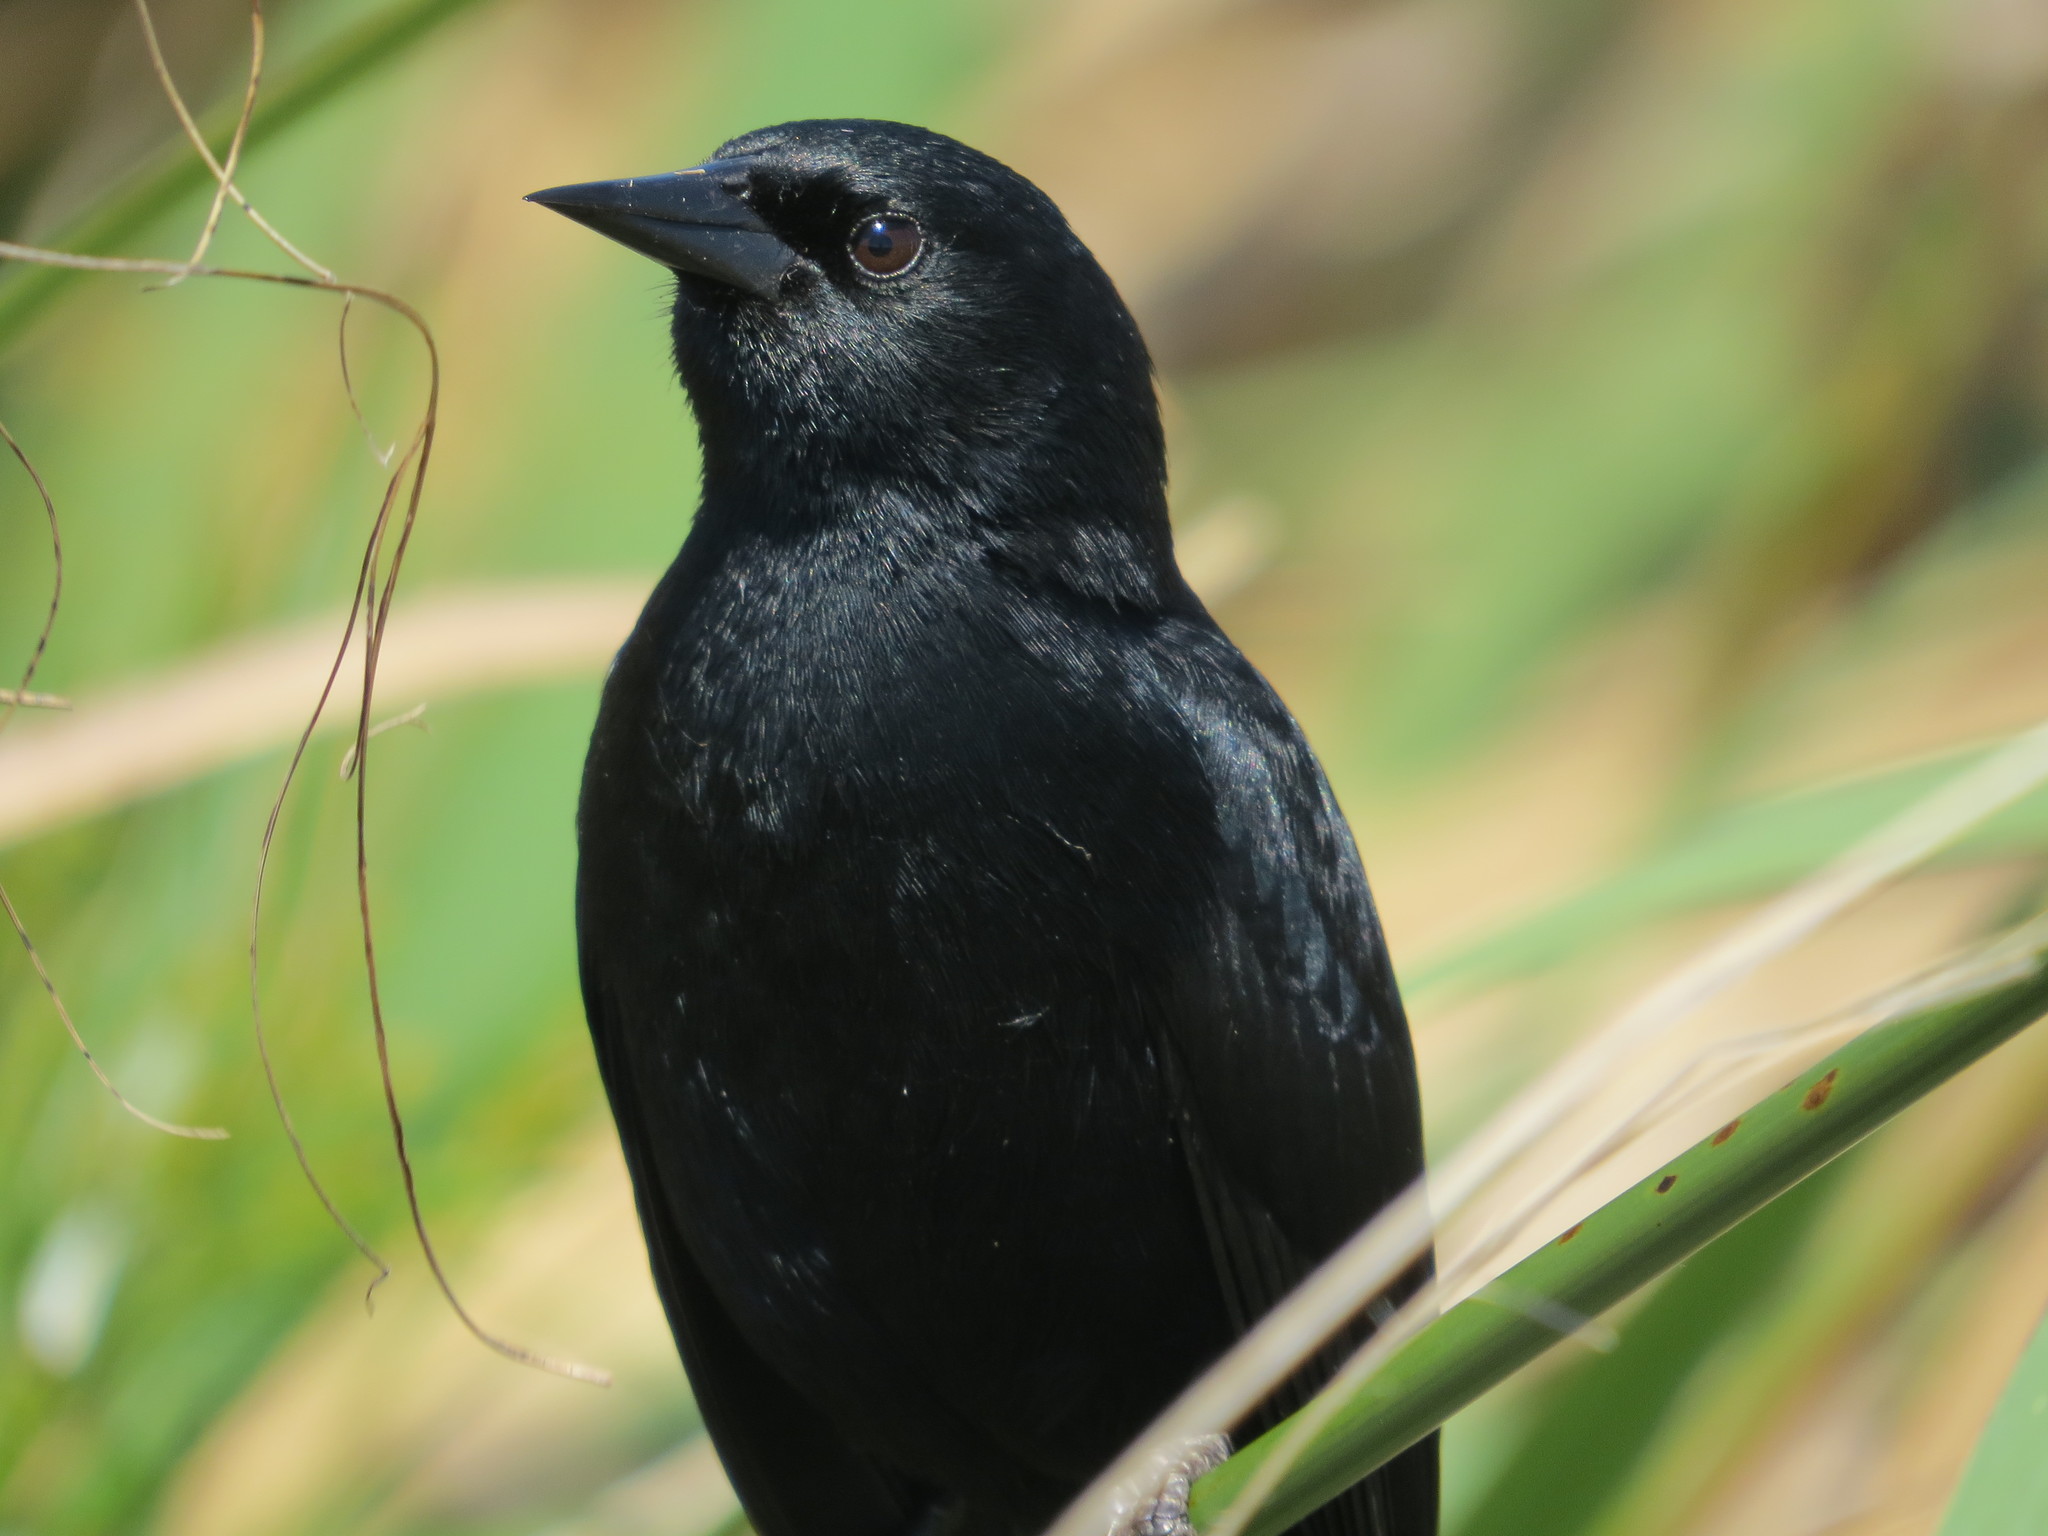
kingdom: Animalia
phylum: Chordata
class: Aves
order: Passeriformes
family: Icteridae
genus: Agelasticus
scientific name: Agelasticus cyanopus
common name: Unicolored blackbird
